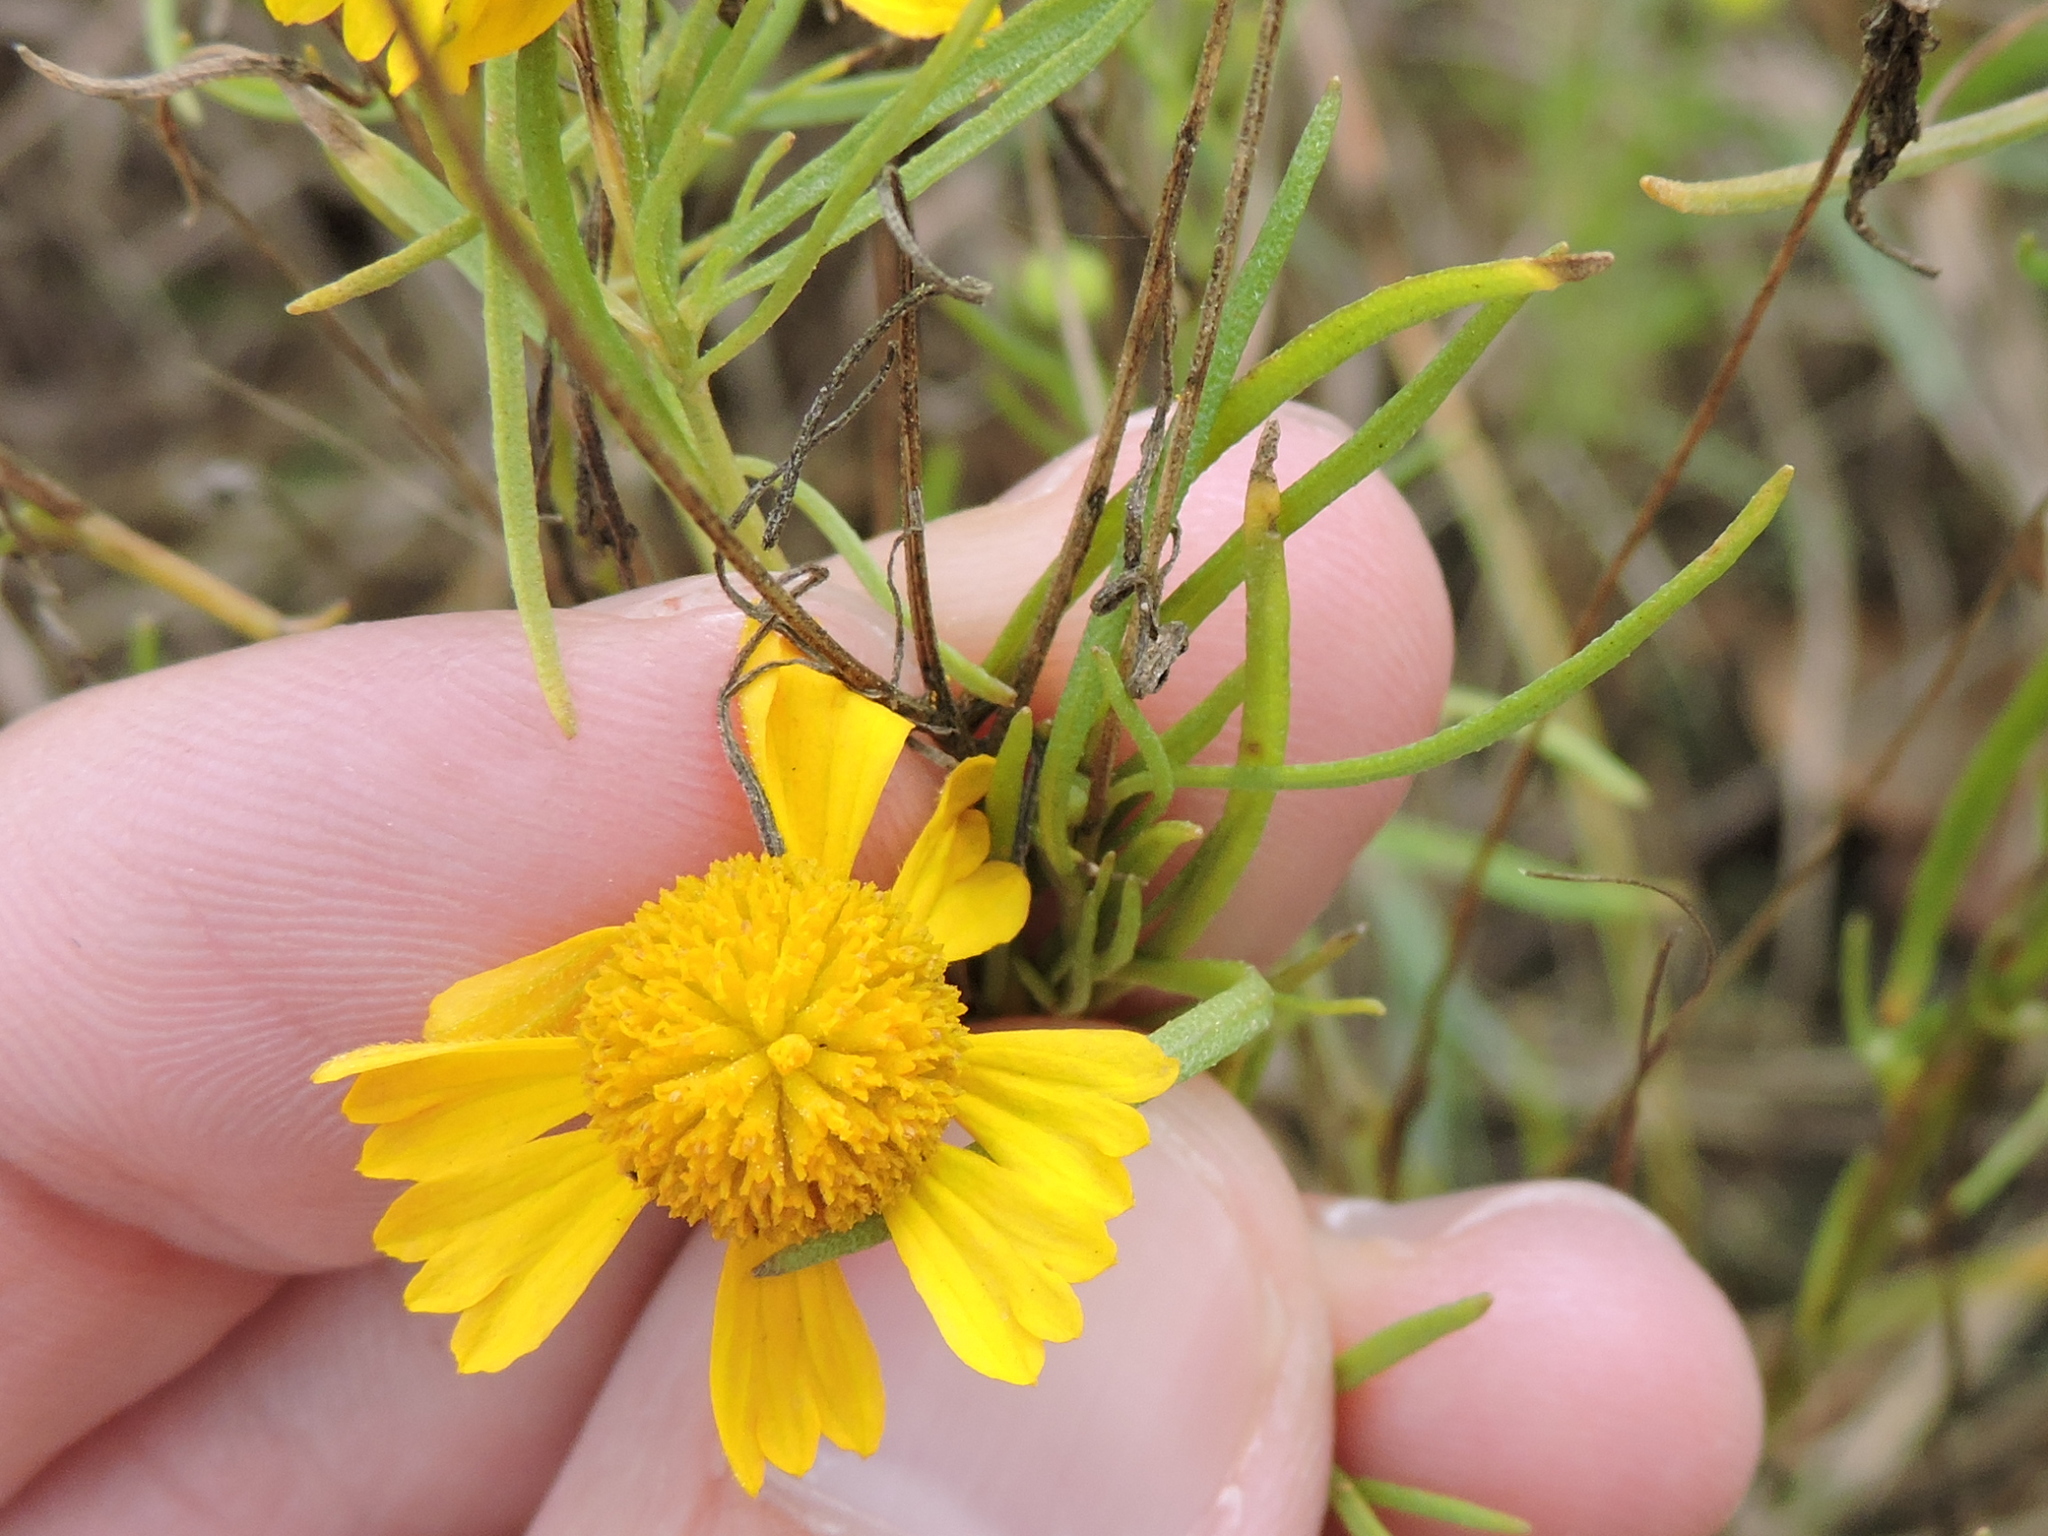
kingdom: Plantae
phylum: Tracheophyta
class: Magnoliopsida
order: Asterales
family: Asteraceae
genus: Helenium
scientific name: Helenium amarum
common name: Bitter sneezeweed
